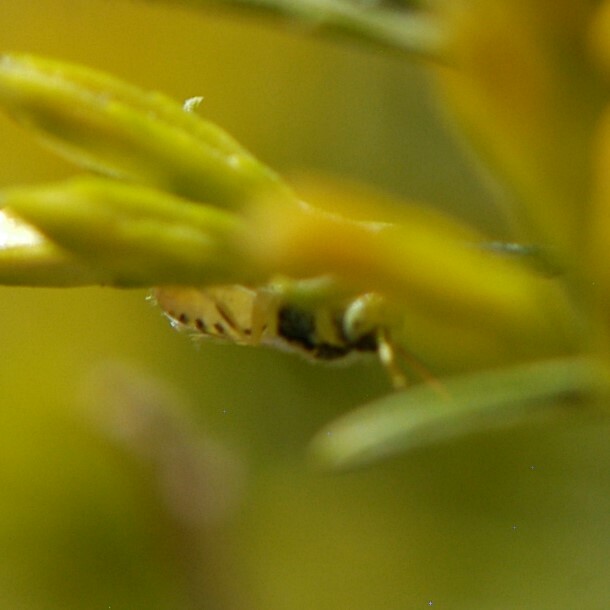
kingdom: Animalia
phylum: Arthropoda
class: Insecta
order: Hymenoptera
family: Andrenidae
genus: Perdita
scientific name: Perdita
